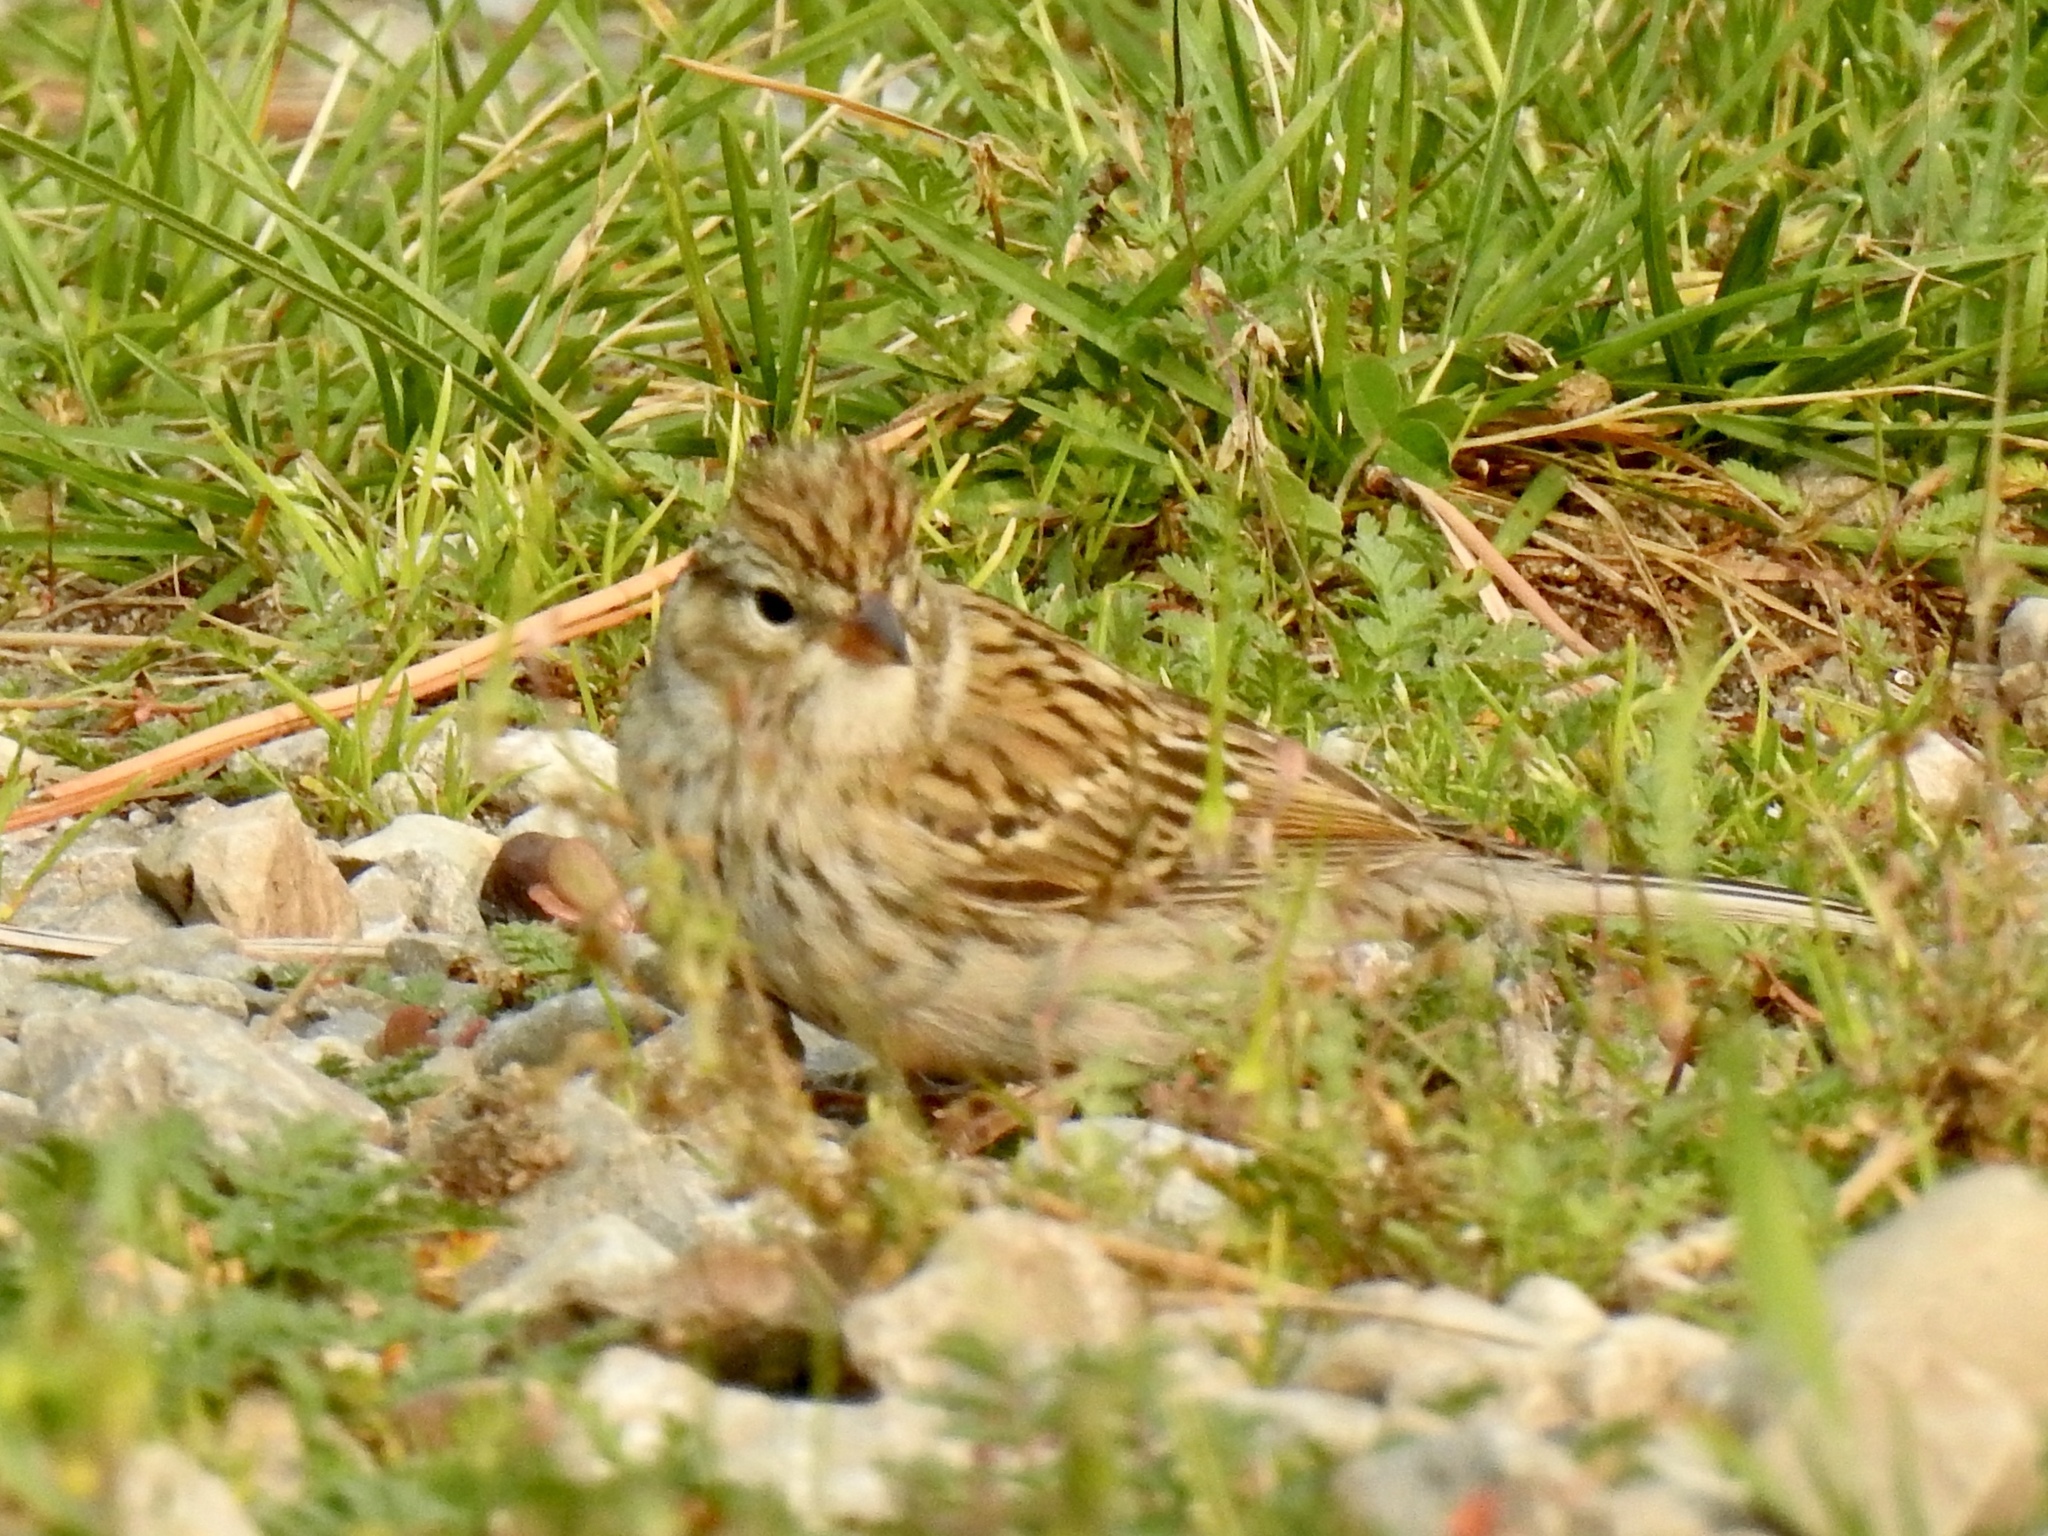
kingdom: Animalia
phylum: Chordata
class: Aves
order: Passeriformes
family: Passerellidae
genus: Spizella
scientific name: Spizella passerina
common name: Chipping sparrow
